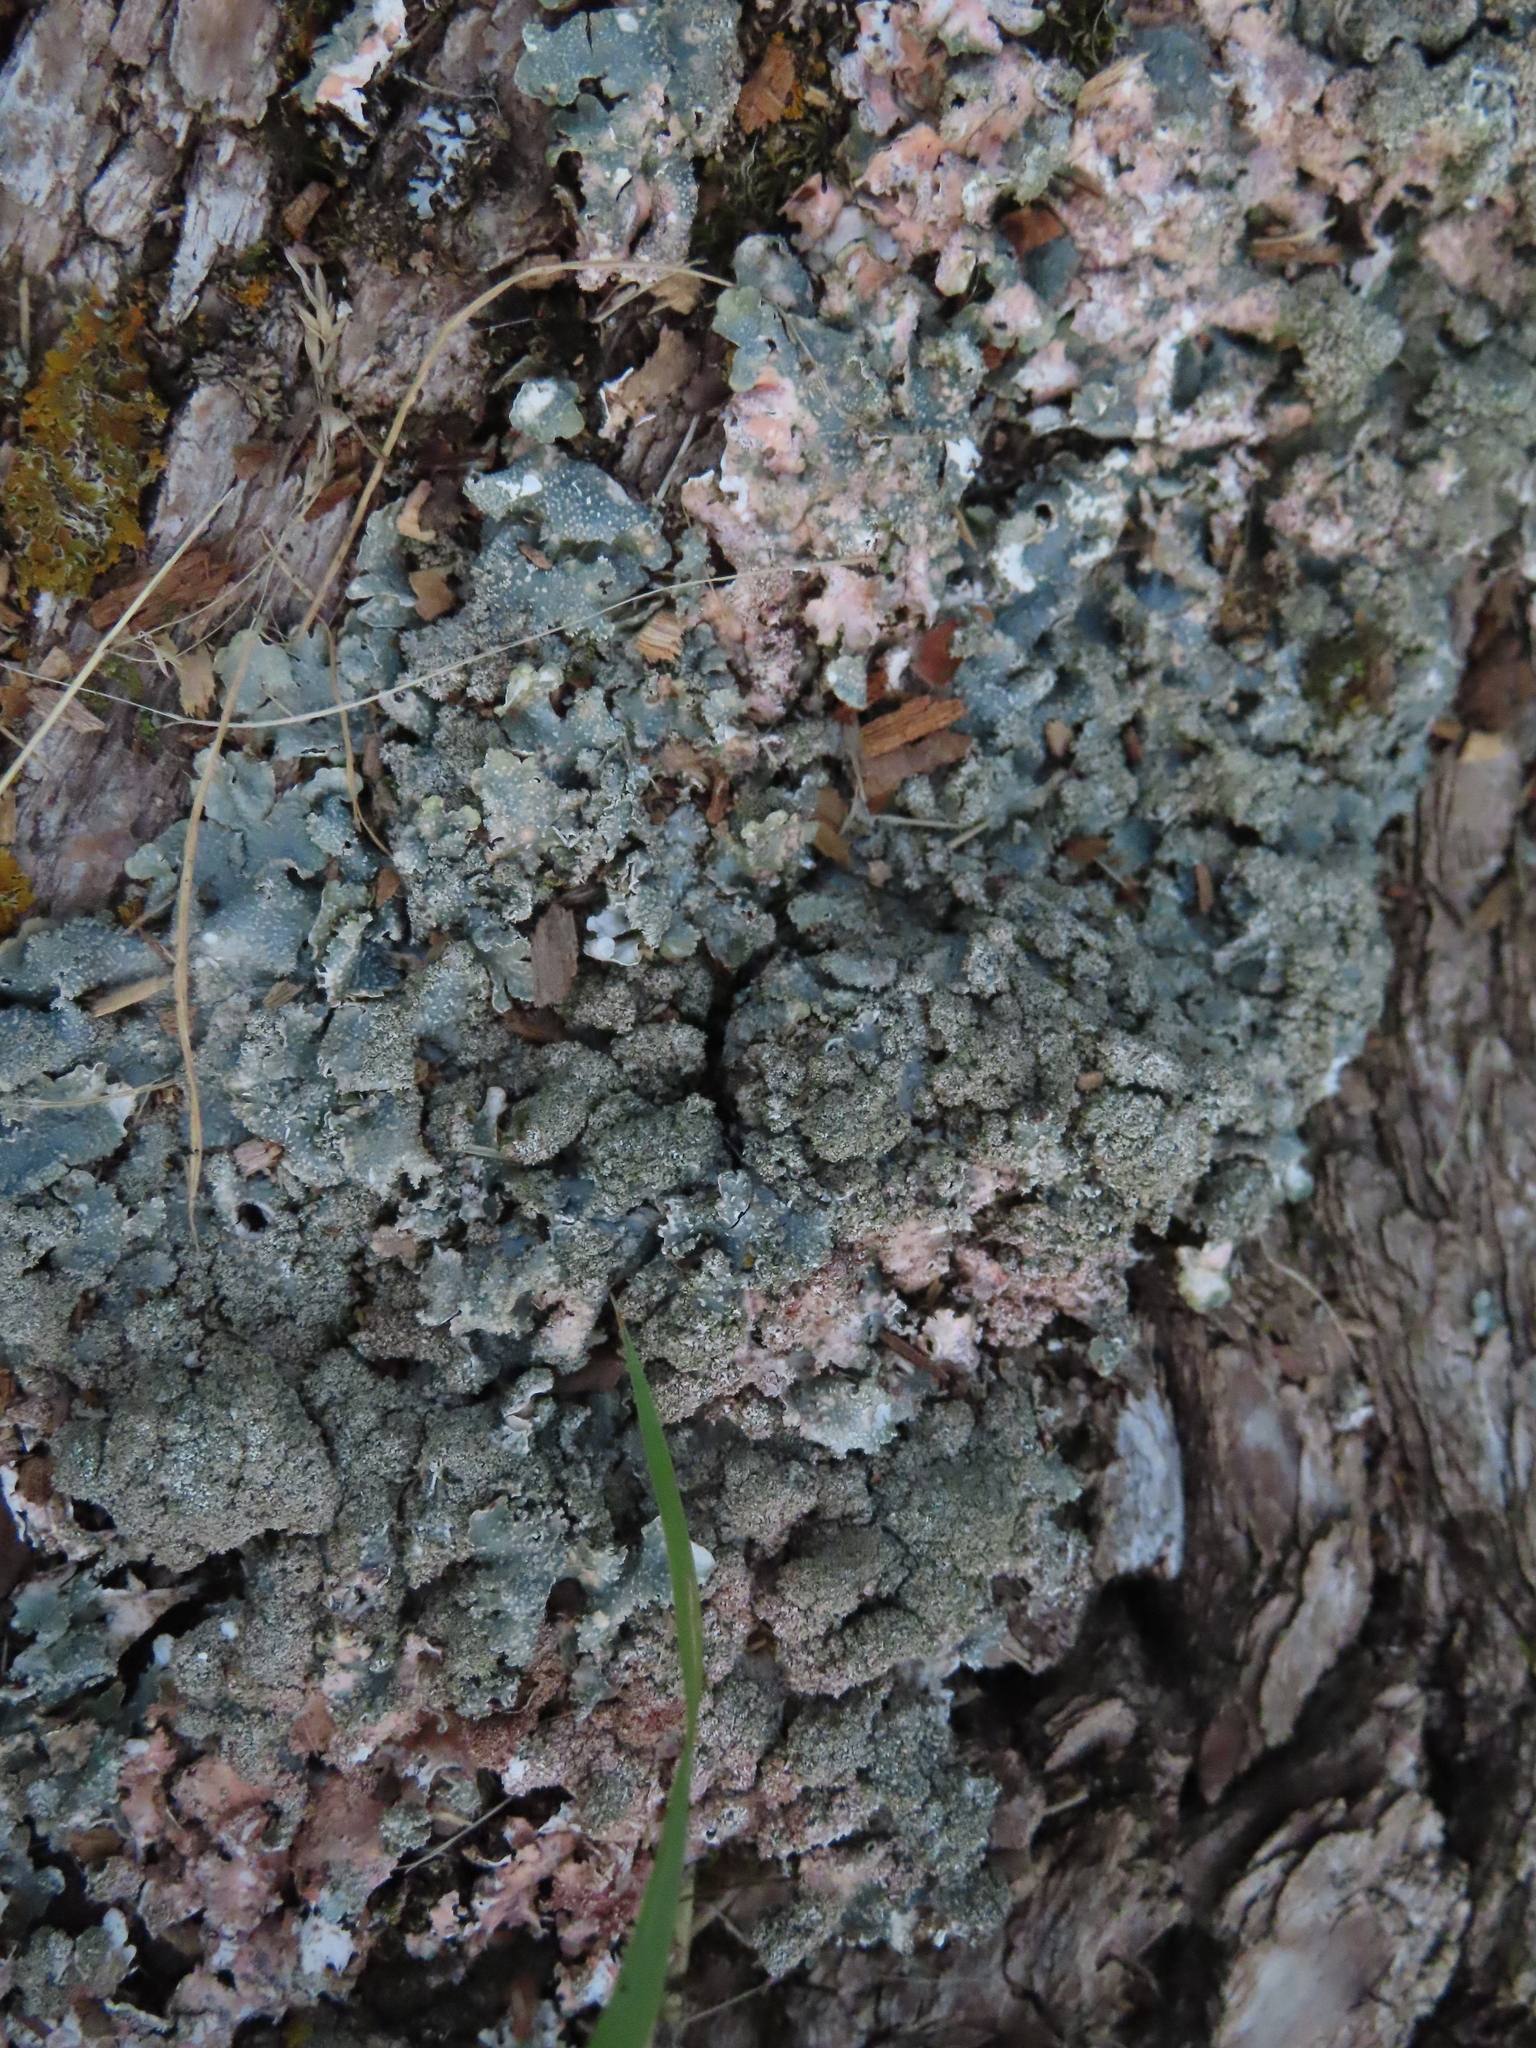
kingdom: Fungi
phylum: Ascomycota
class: Lecanoromycetes
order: Lecanorales
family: Parmeliaceae
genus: Punctelia
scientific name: Punctelia rudecta
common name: Rough speckled shield lichen
